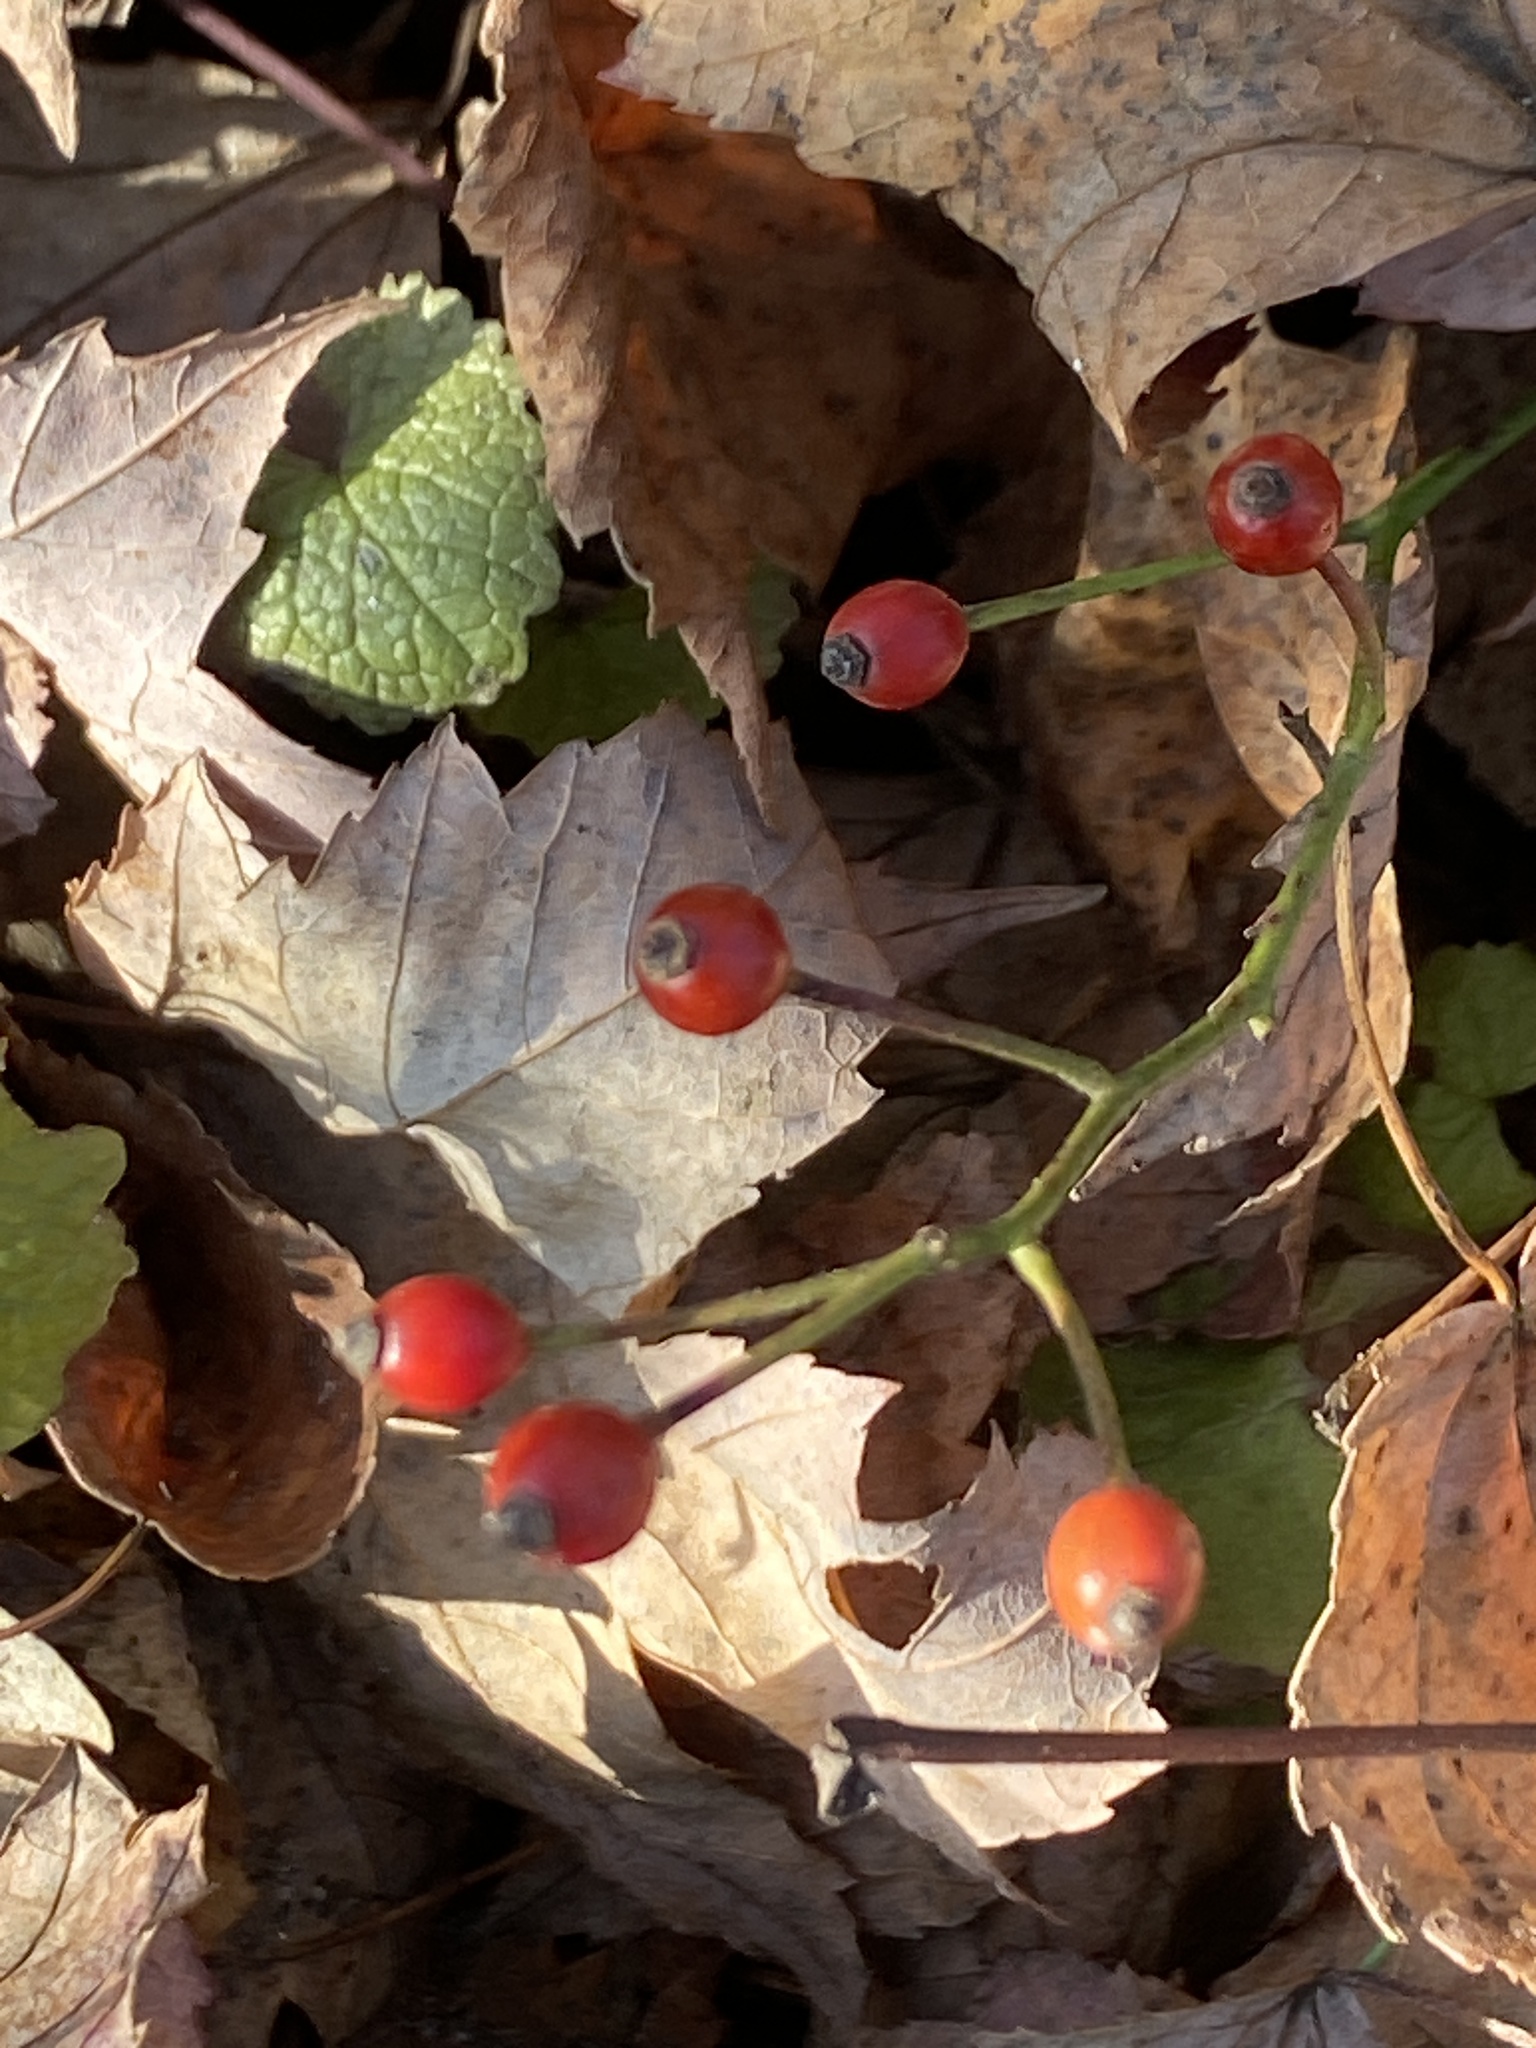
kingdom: Plantae
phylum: Tracheophyta
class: Magnoliopsida
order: Rosales
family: Rosaceae
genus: Rosa
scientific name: Rosa multiflora
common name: Multiflora rose
